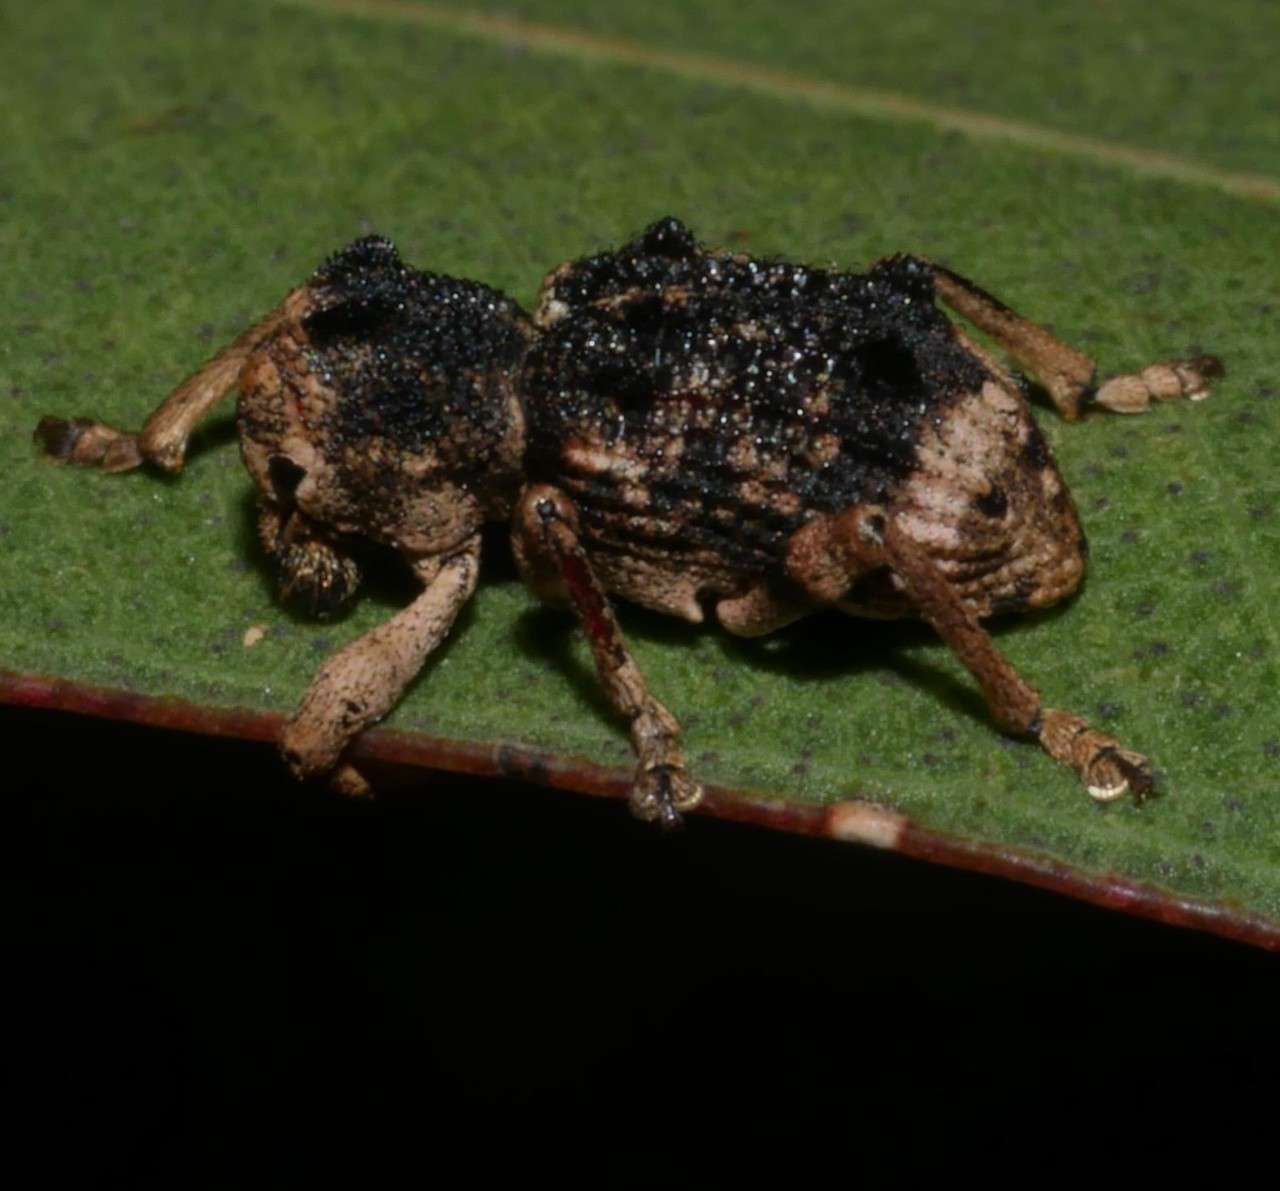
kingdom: Animalia
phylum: Arthropoda
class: Insecta
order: Coleoptera
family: Curculionidae
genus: Aades
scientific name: Aades cultratus
